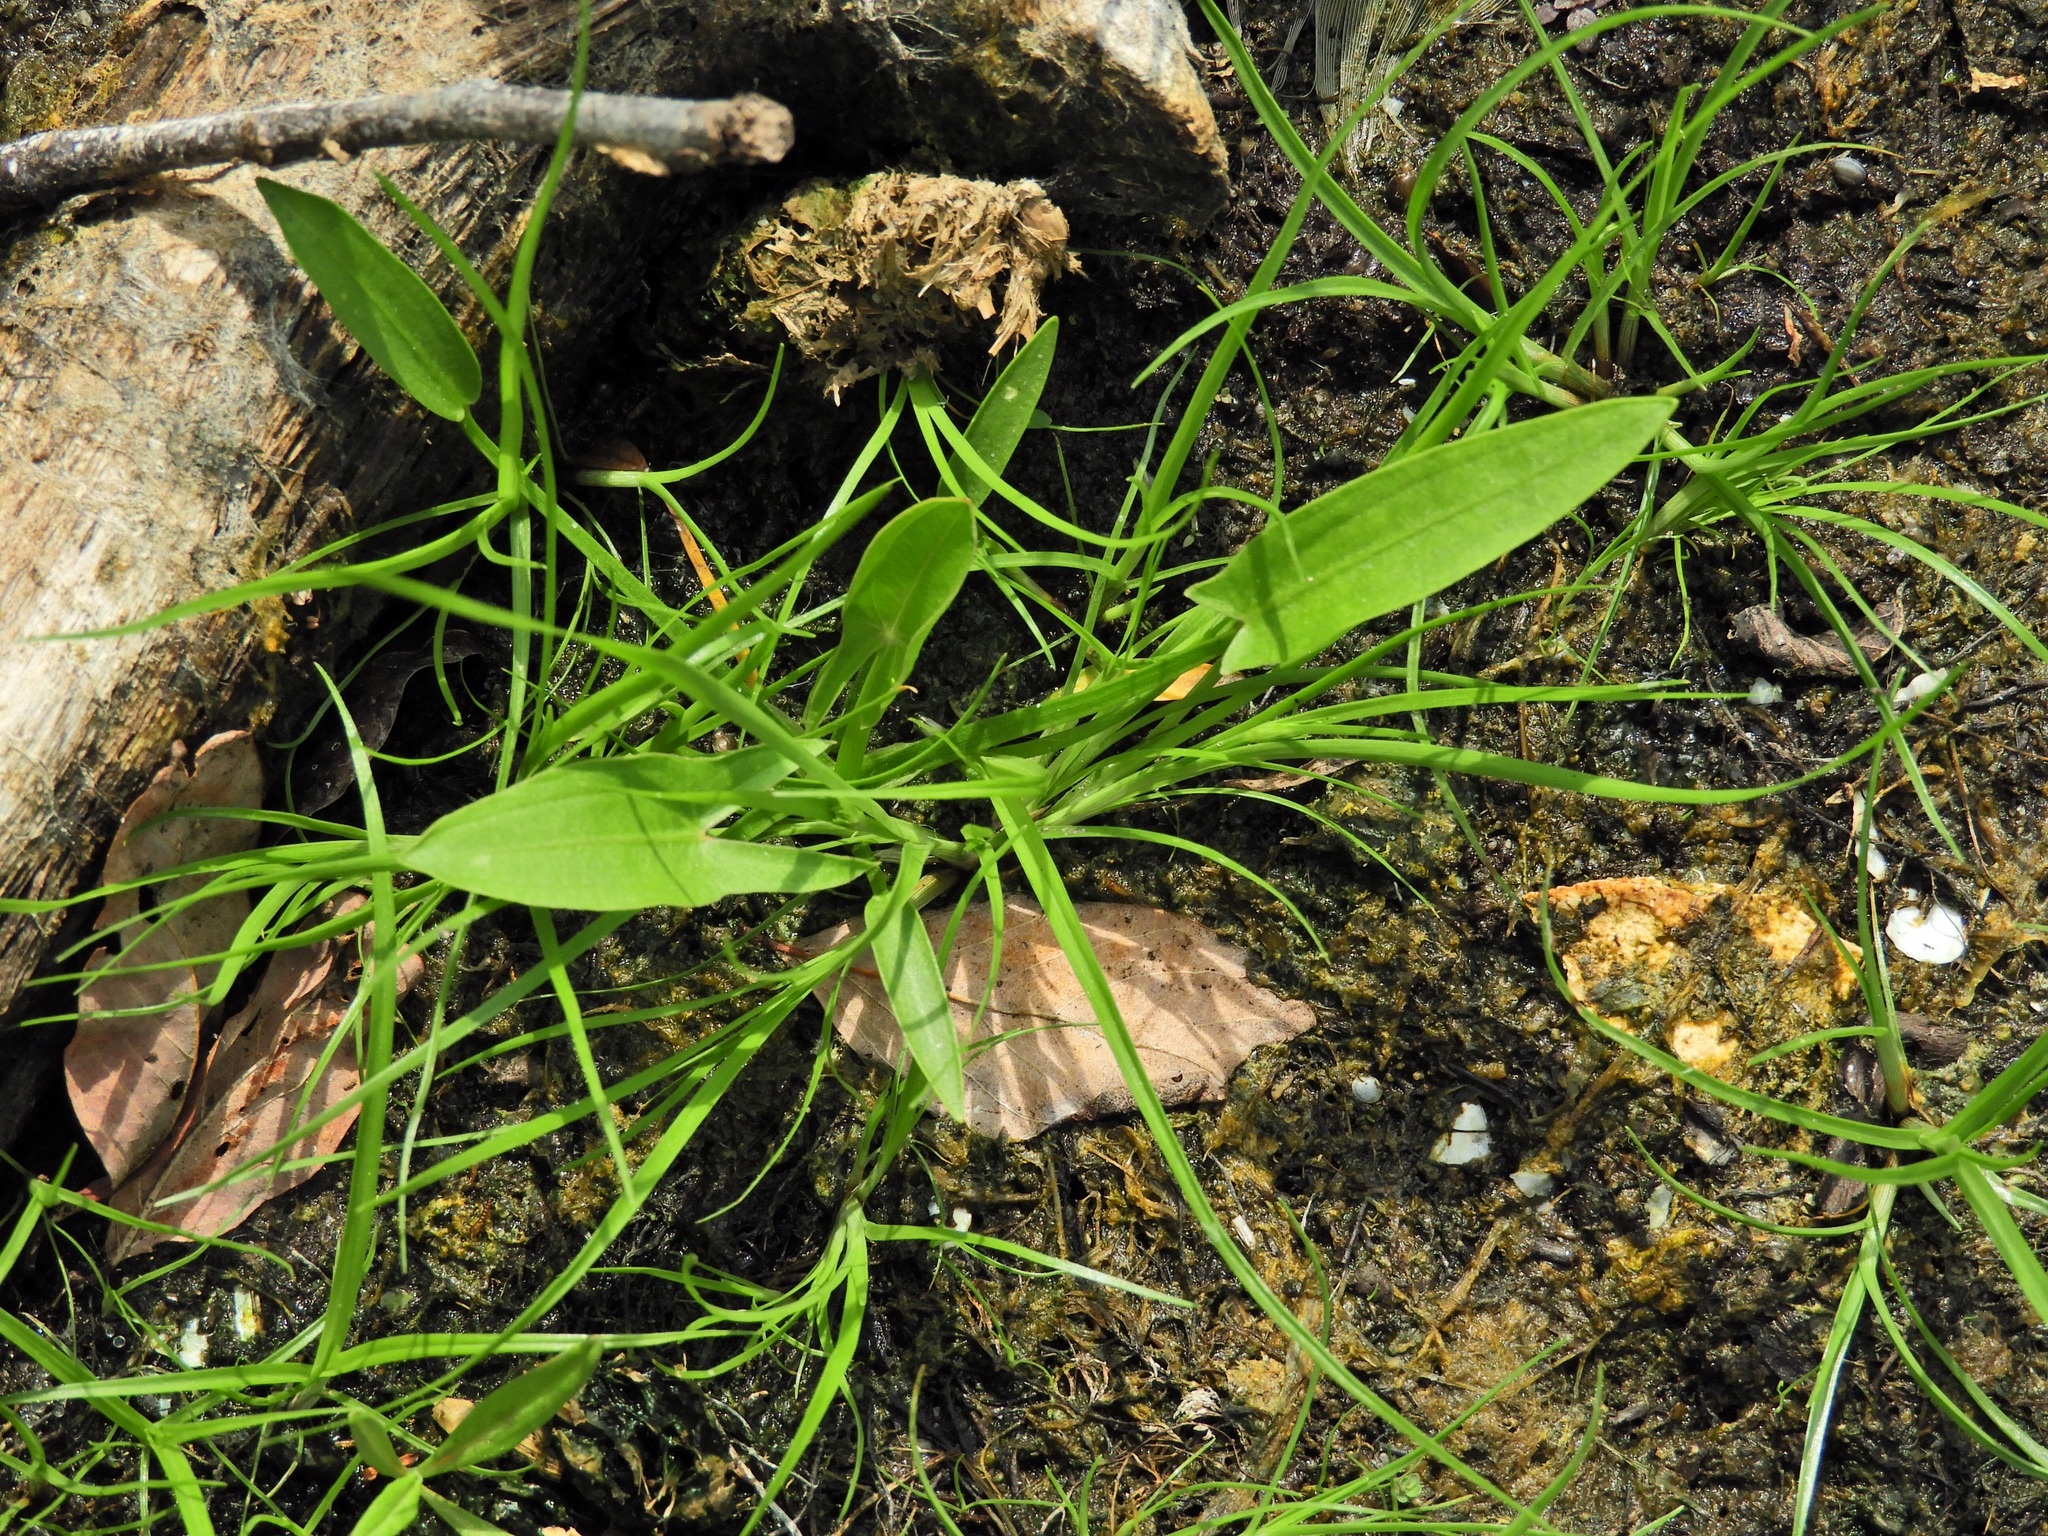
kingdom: Plantae
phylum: Tracheophyta
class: Liliopsida
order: Alismatales
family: Alismataceae
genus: Sagittaria
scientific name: Sagittaria latifolia
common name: Duck-potato
